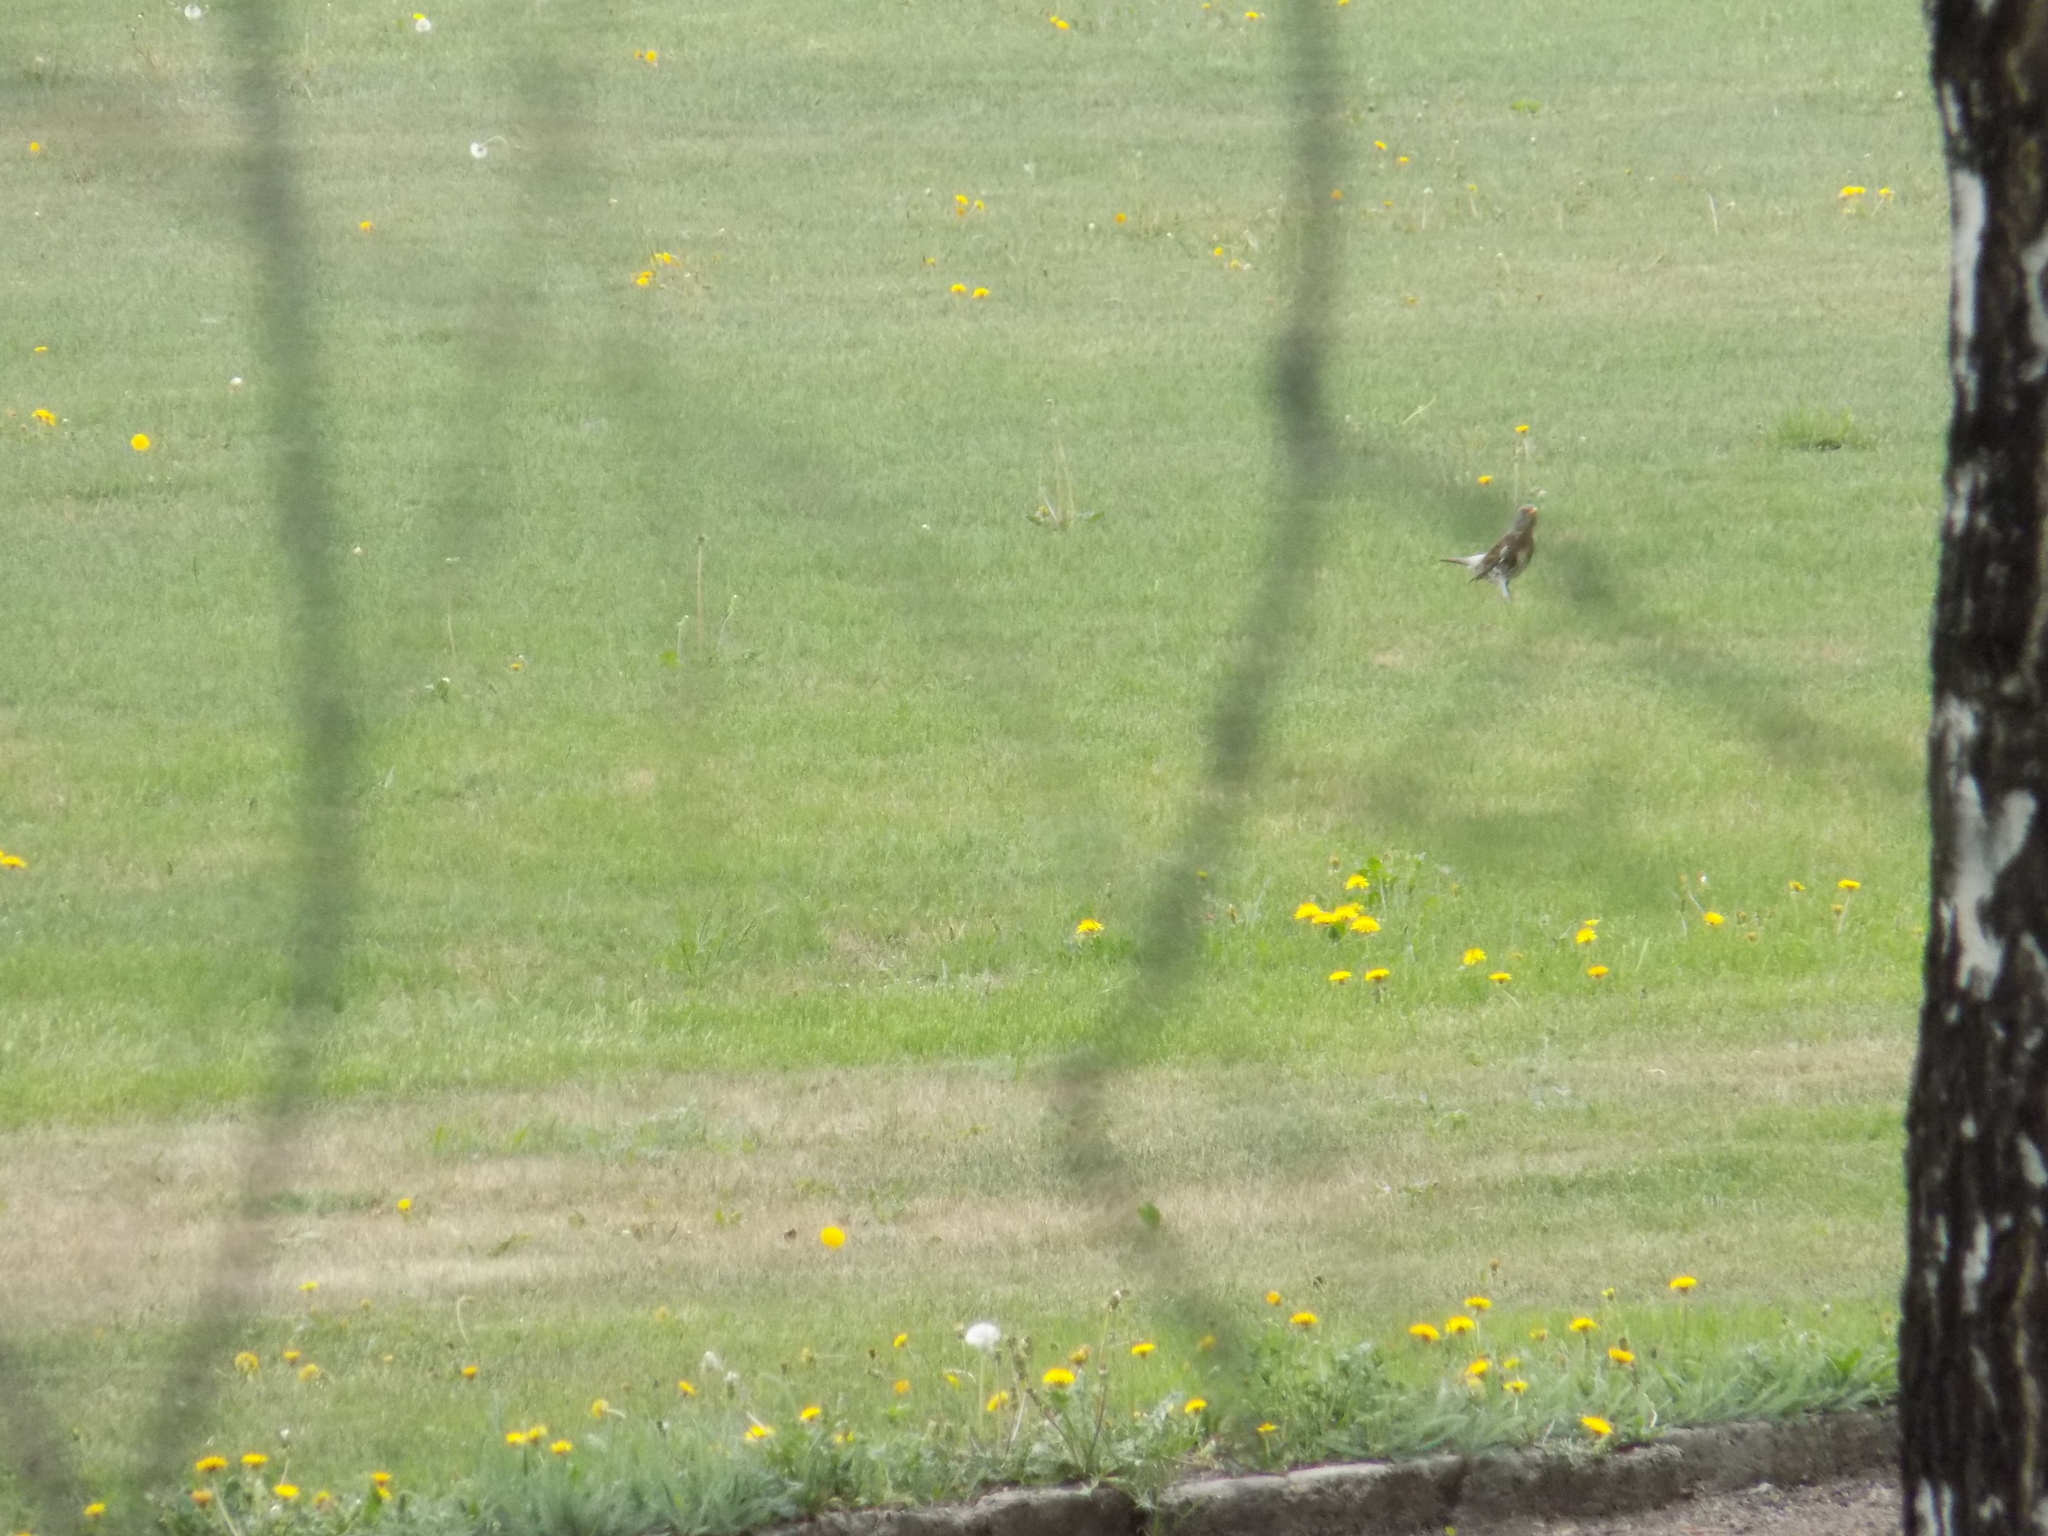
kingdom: Animalia
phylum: Chordata
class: Aves
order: Passeriformes
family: Turdidae
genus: Turdus
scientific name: Turdus pilaris
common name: Fieldfare
